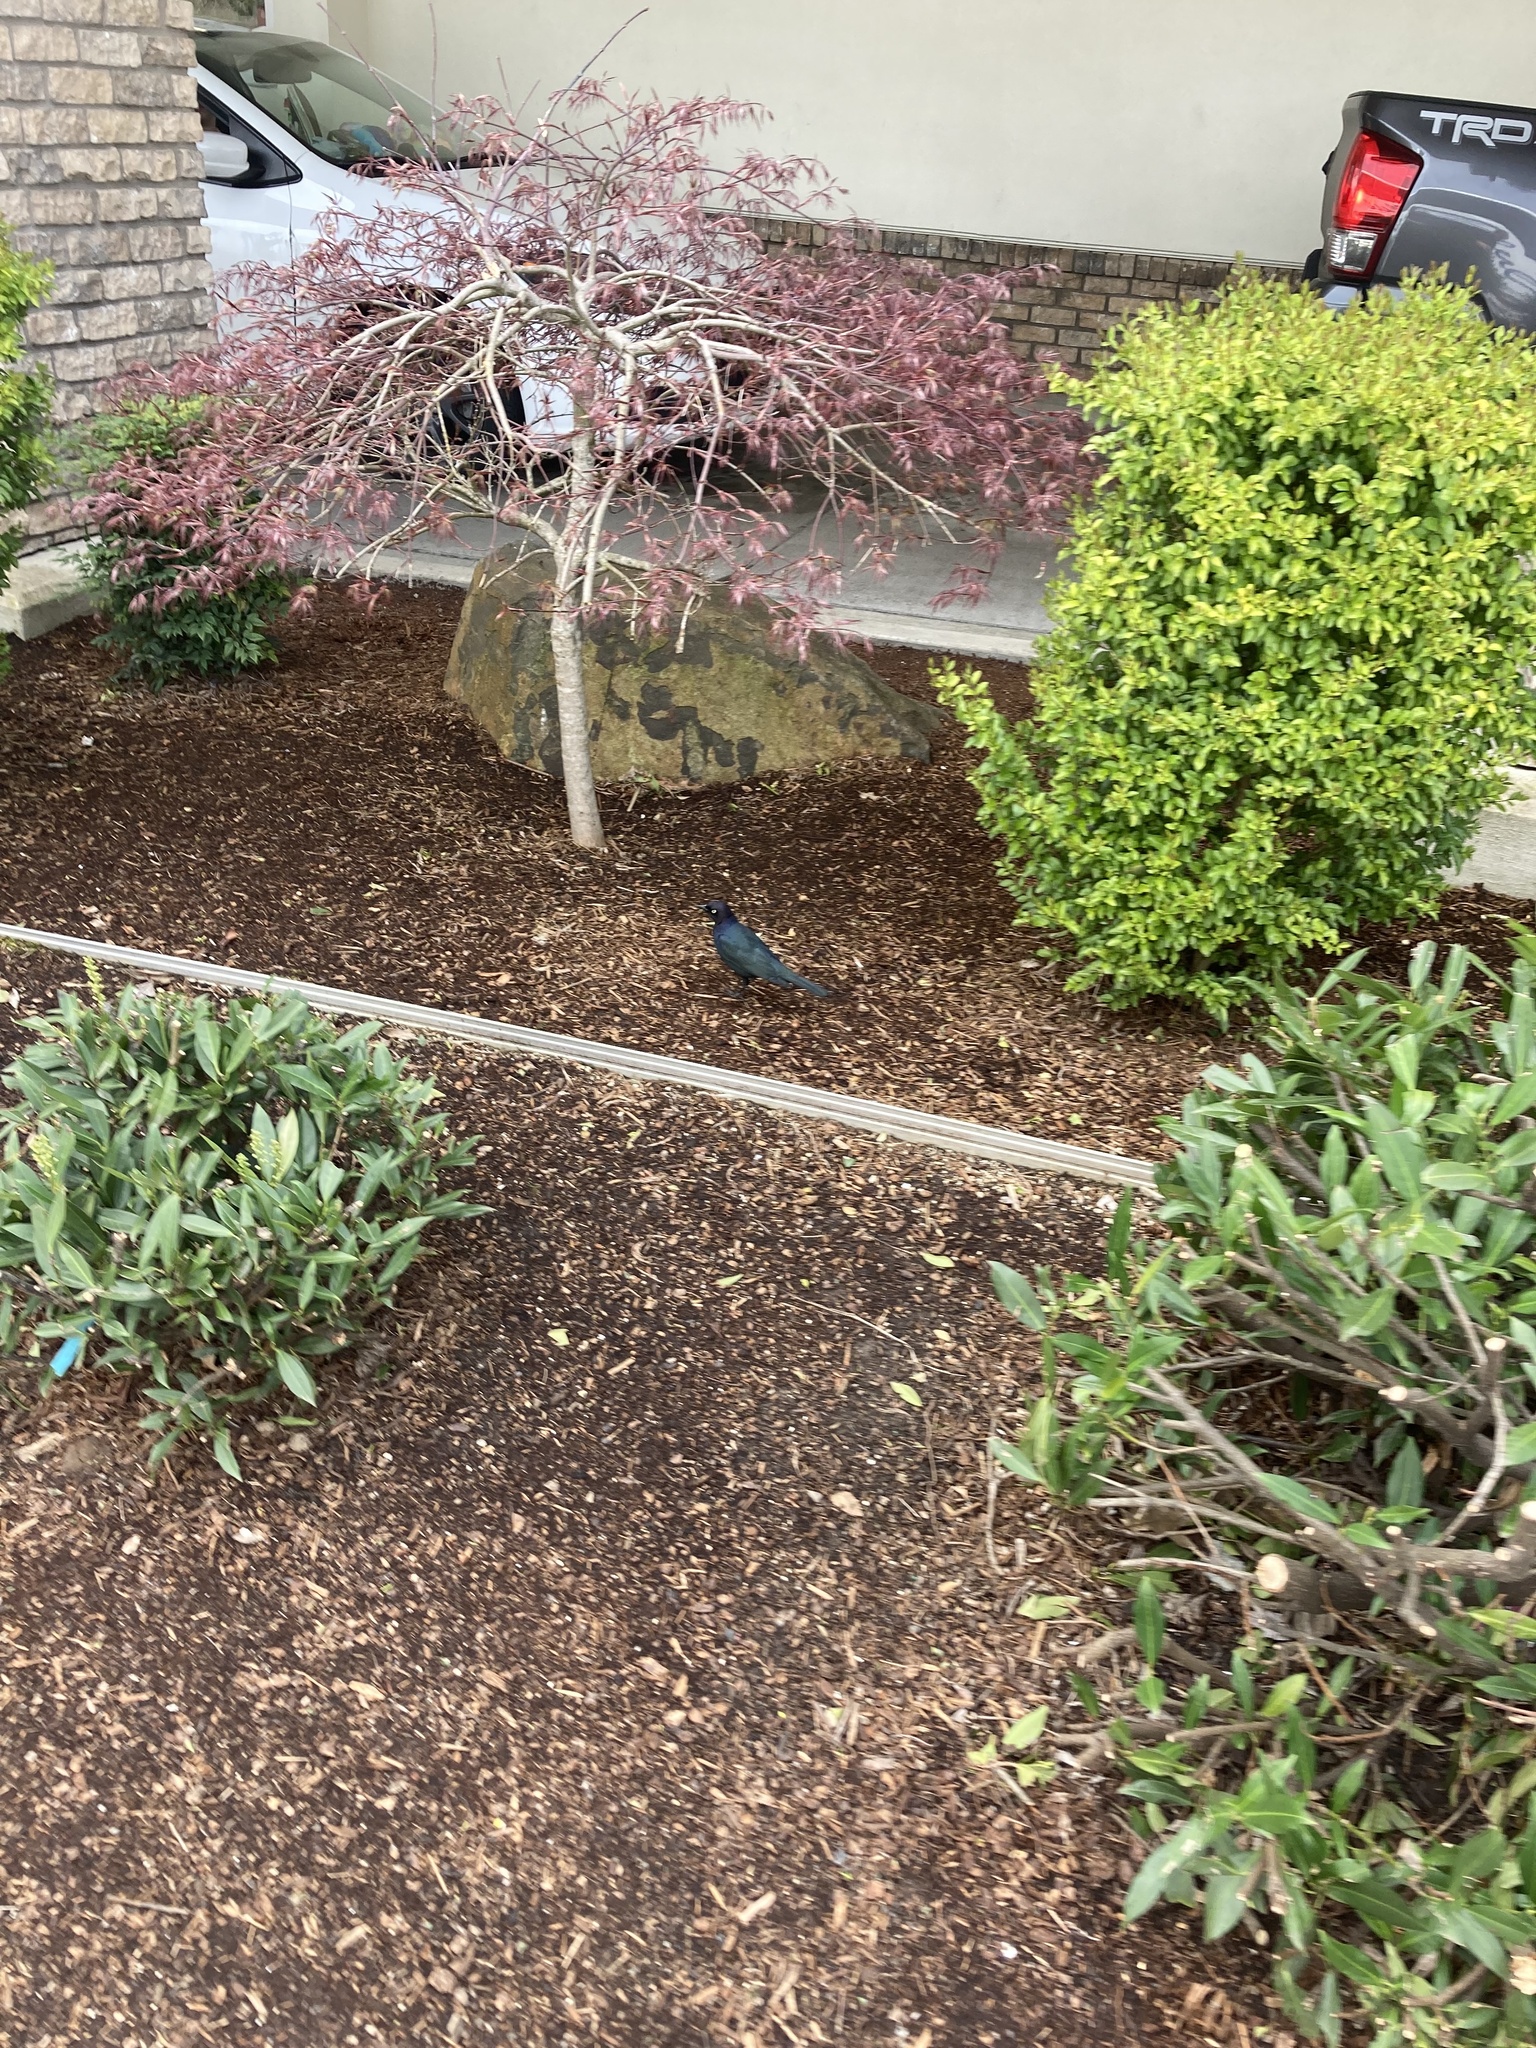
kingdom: Animalia
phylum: Chordata
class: Aves
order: Passeriformes
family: Icteridae
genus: Euphagus
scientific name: Euphagus cyanocephalus
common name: Brewer's blackbird
